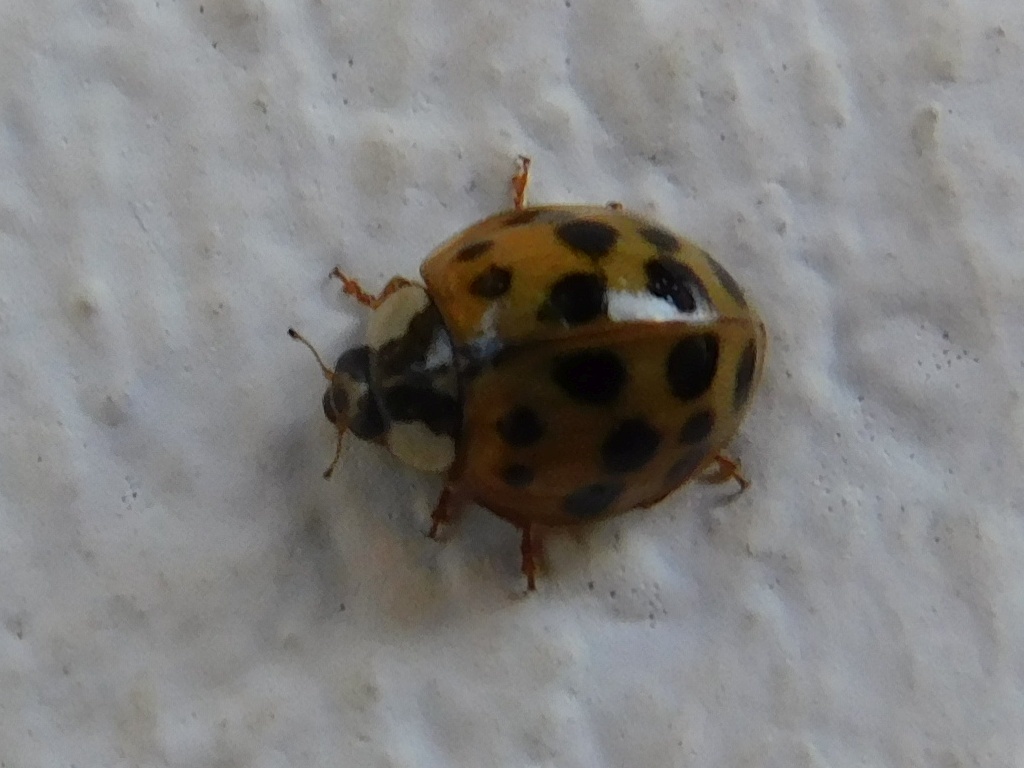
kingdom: Animalia
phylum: Arthropoda
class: Insecta
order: Coleoptera
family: Coccinellidae
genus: Harmonia
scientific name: Harmonia axyridis
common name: Harlequin ladybird
